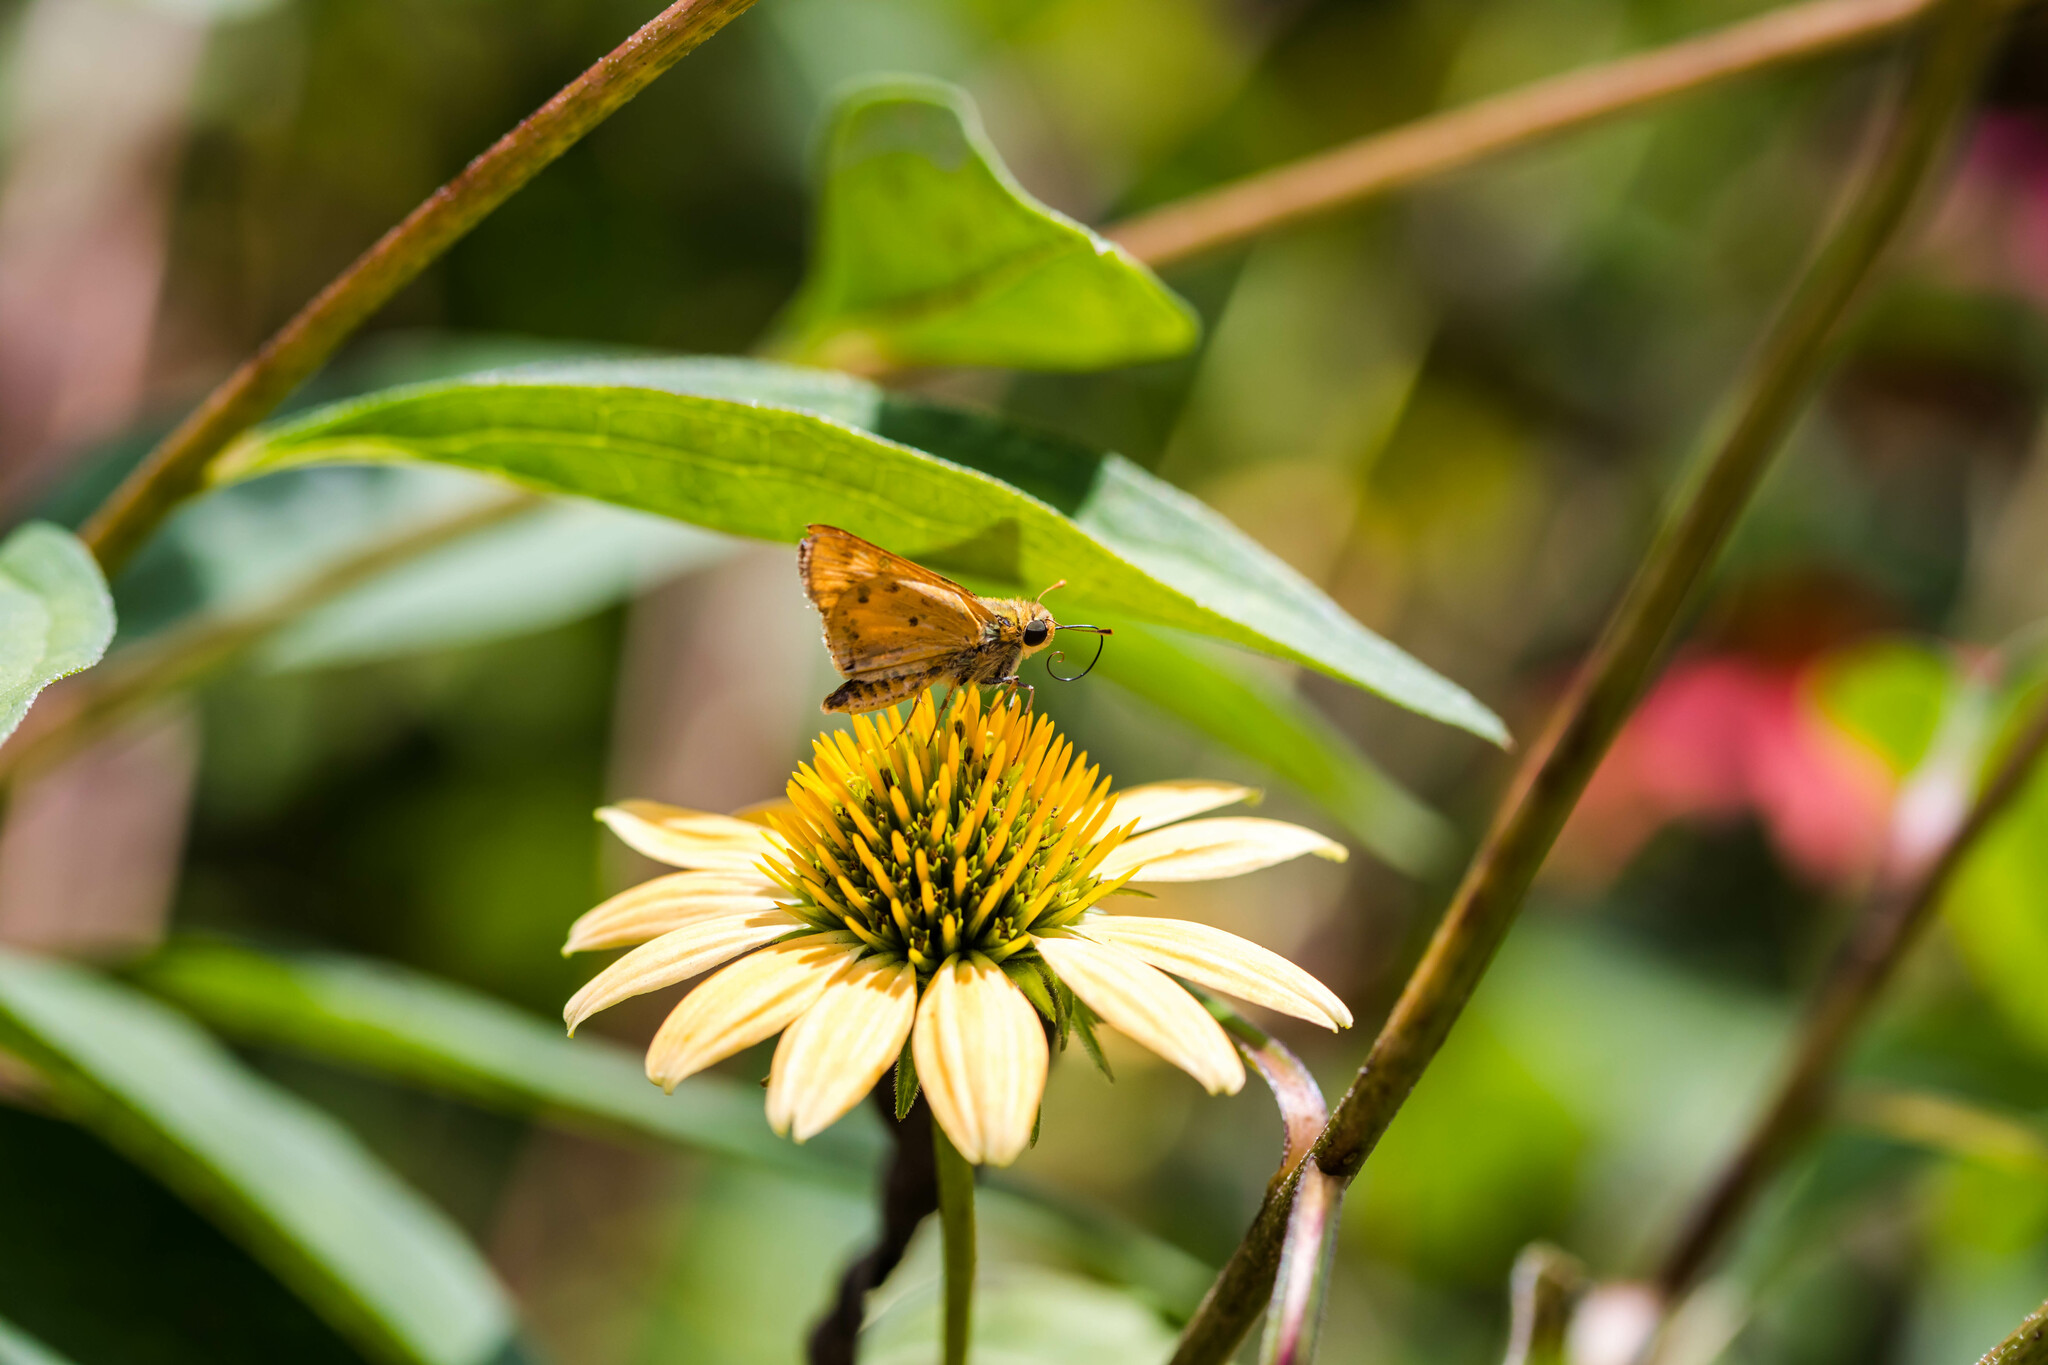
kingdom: Animalia
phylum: Arthropoda
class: Insecta
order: Lepidoptera
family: Hesperiidae
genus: Hylephila
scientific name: Hylephila phyleus
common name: Fiery skipper
